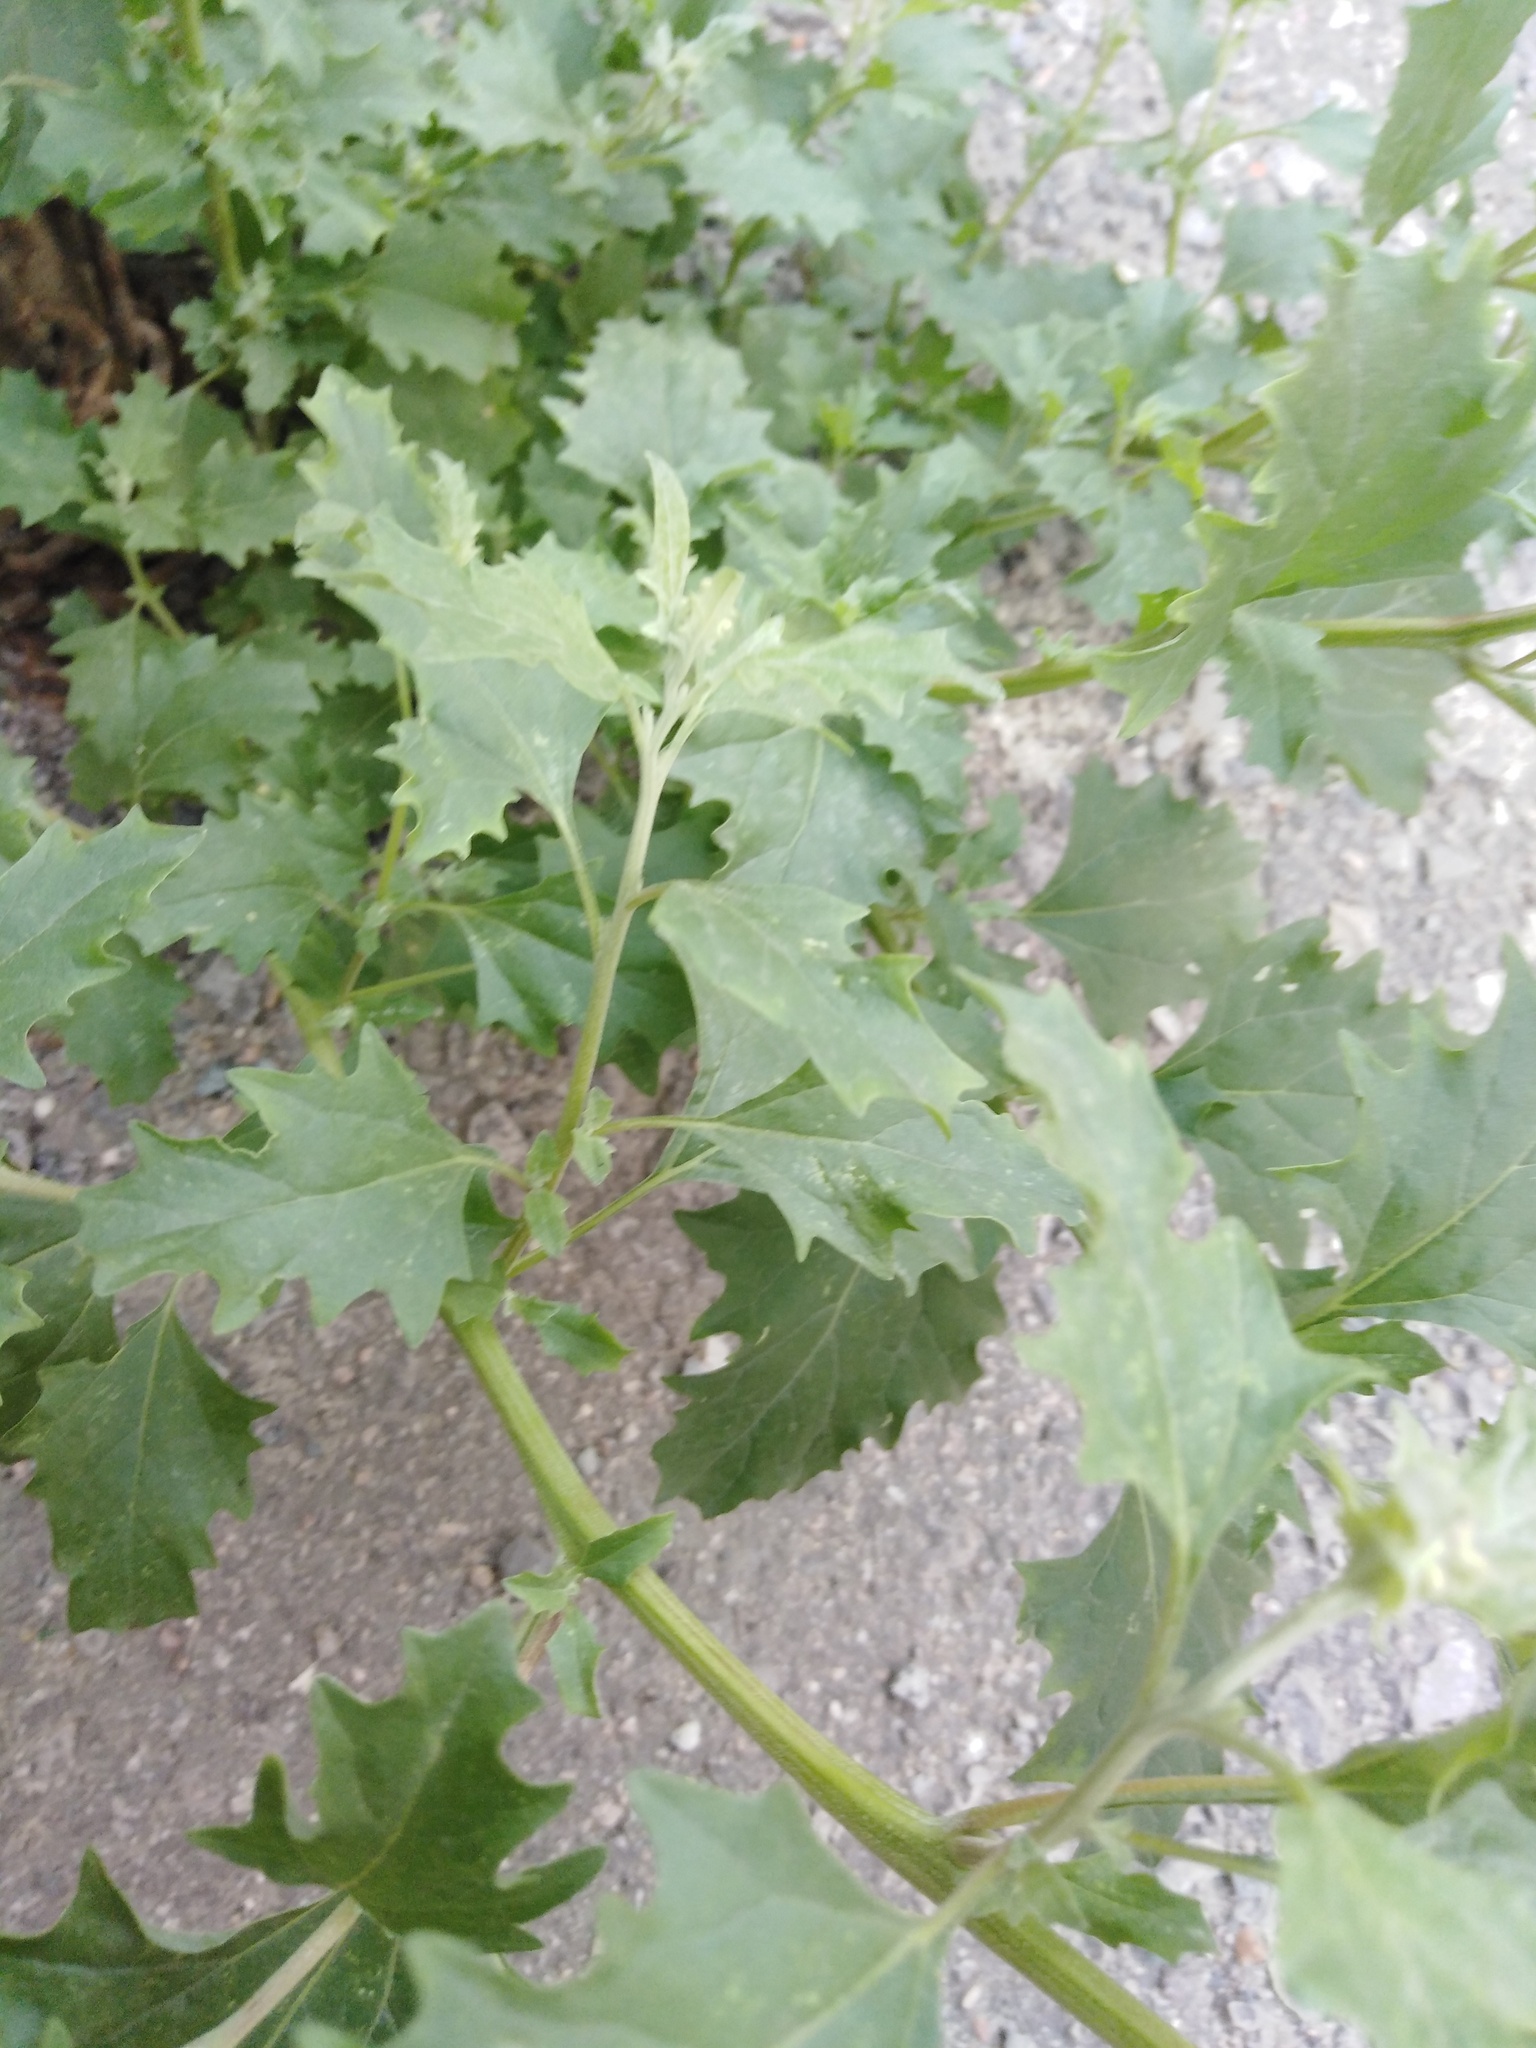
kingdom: Plantae
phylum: Tracheophyta
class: Magnoliopsida
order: Caryophyllales
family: Amaranthaceae
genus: Atriplex
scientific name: Atriplex tatarica
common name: Tatarian orache
